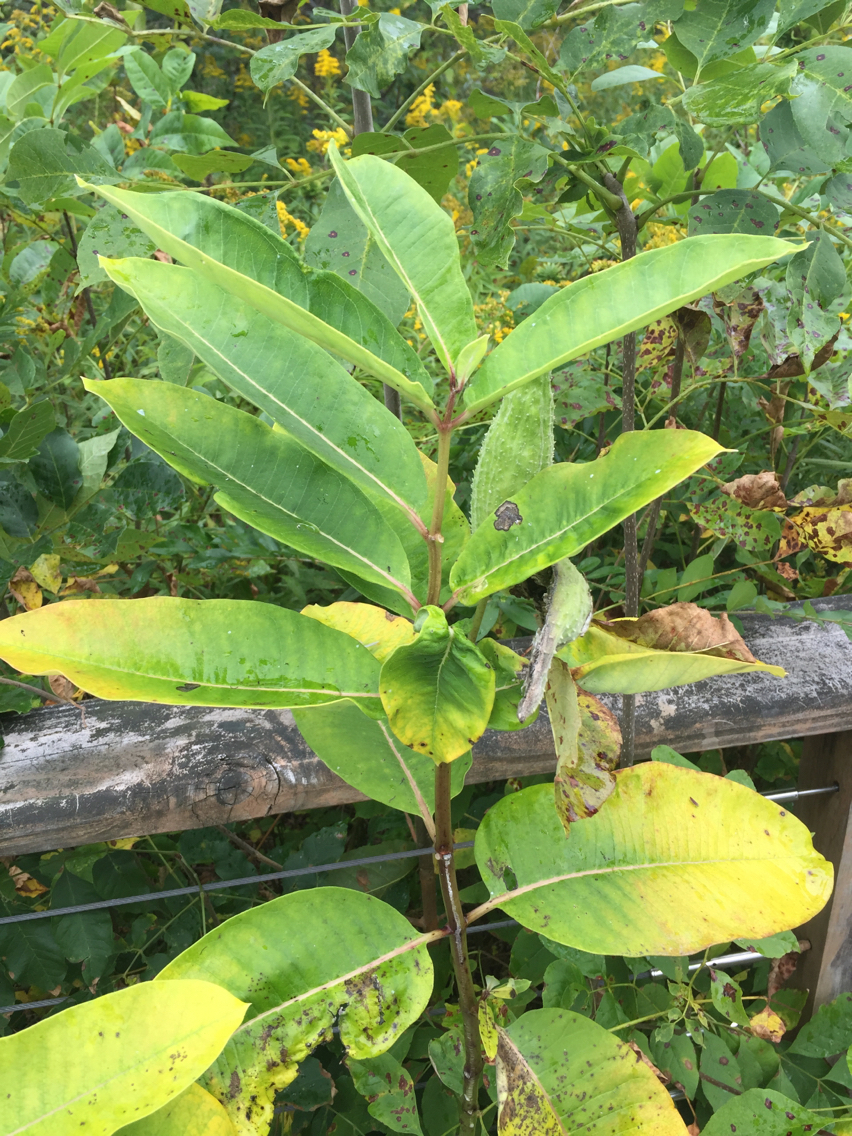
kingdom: Plantae
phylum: Tracheophyta
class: Magnoliopsida
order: Gentianales
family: Apocynaceae
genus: Asclepias
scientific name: Asclepias syriaca
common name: Common milkweed
